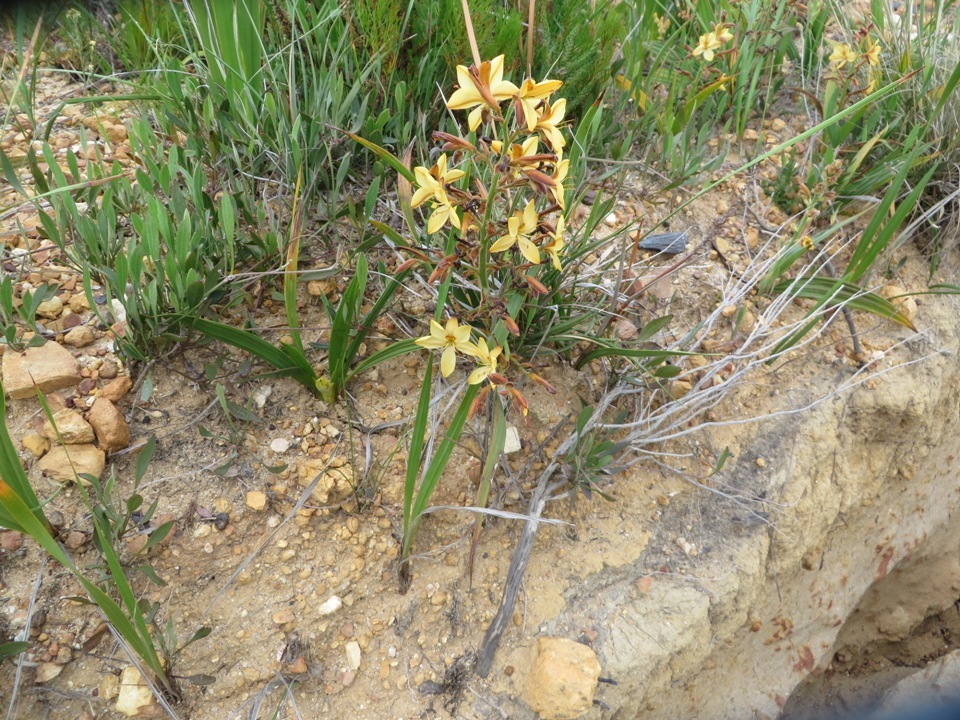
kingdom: Plantae
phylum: Tracheophyta
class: Liliopsida
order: Commelinales
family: Haemodoraceae
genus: Wachendorfia
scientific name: Wachendorfia paniculata
